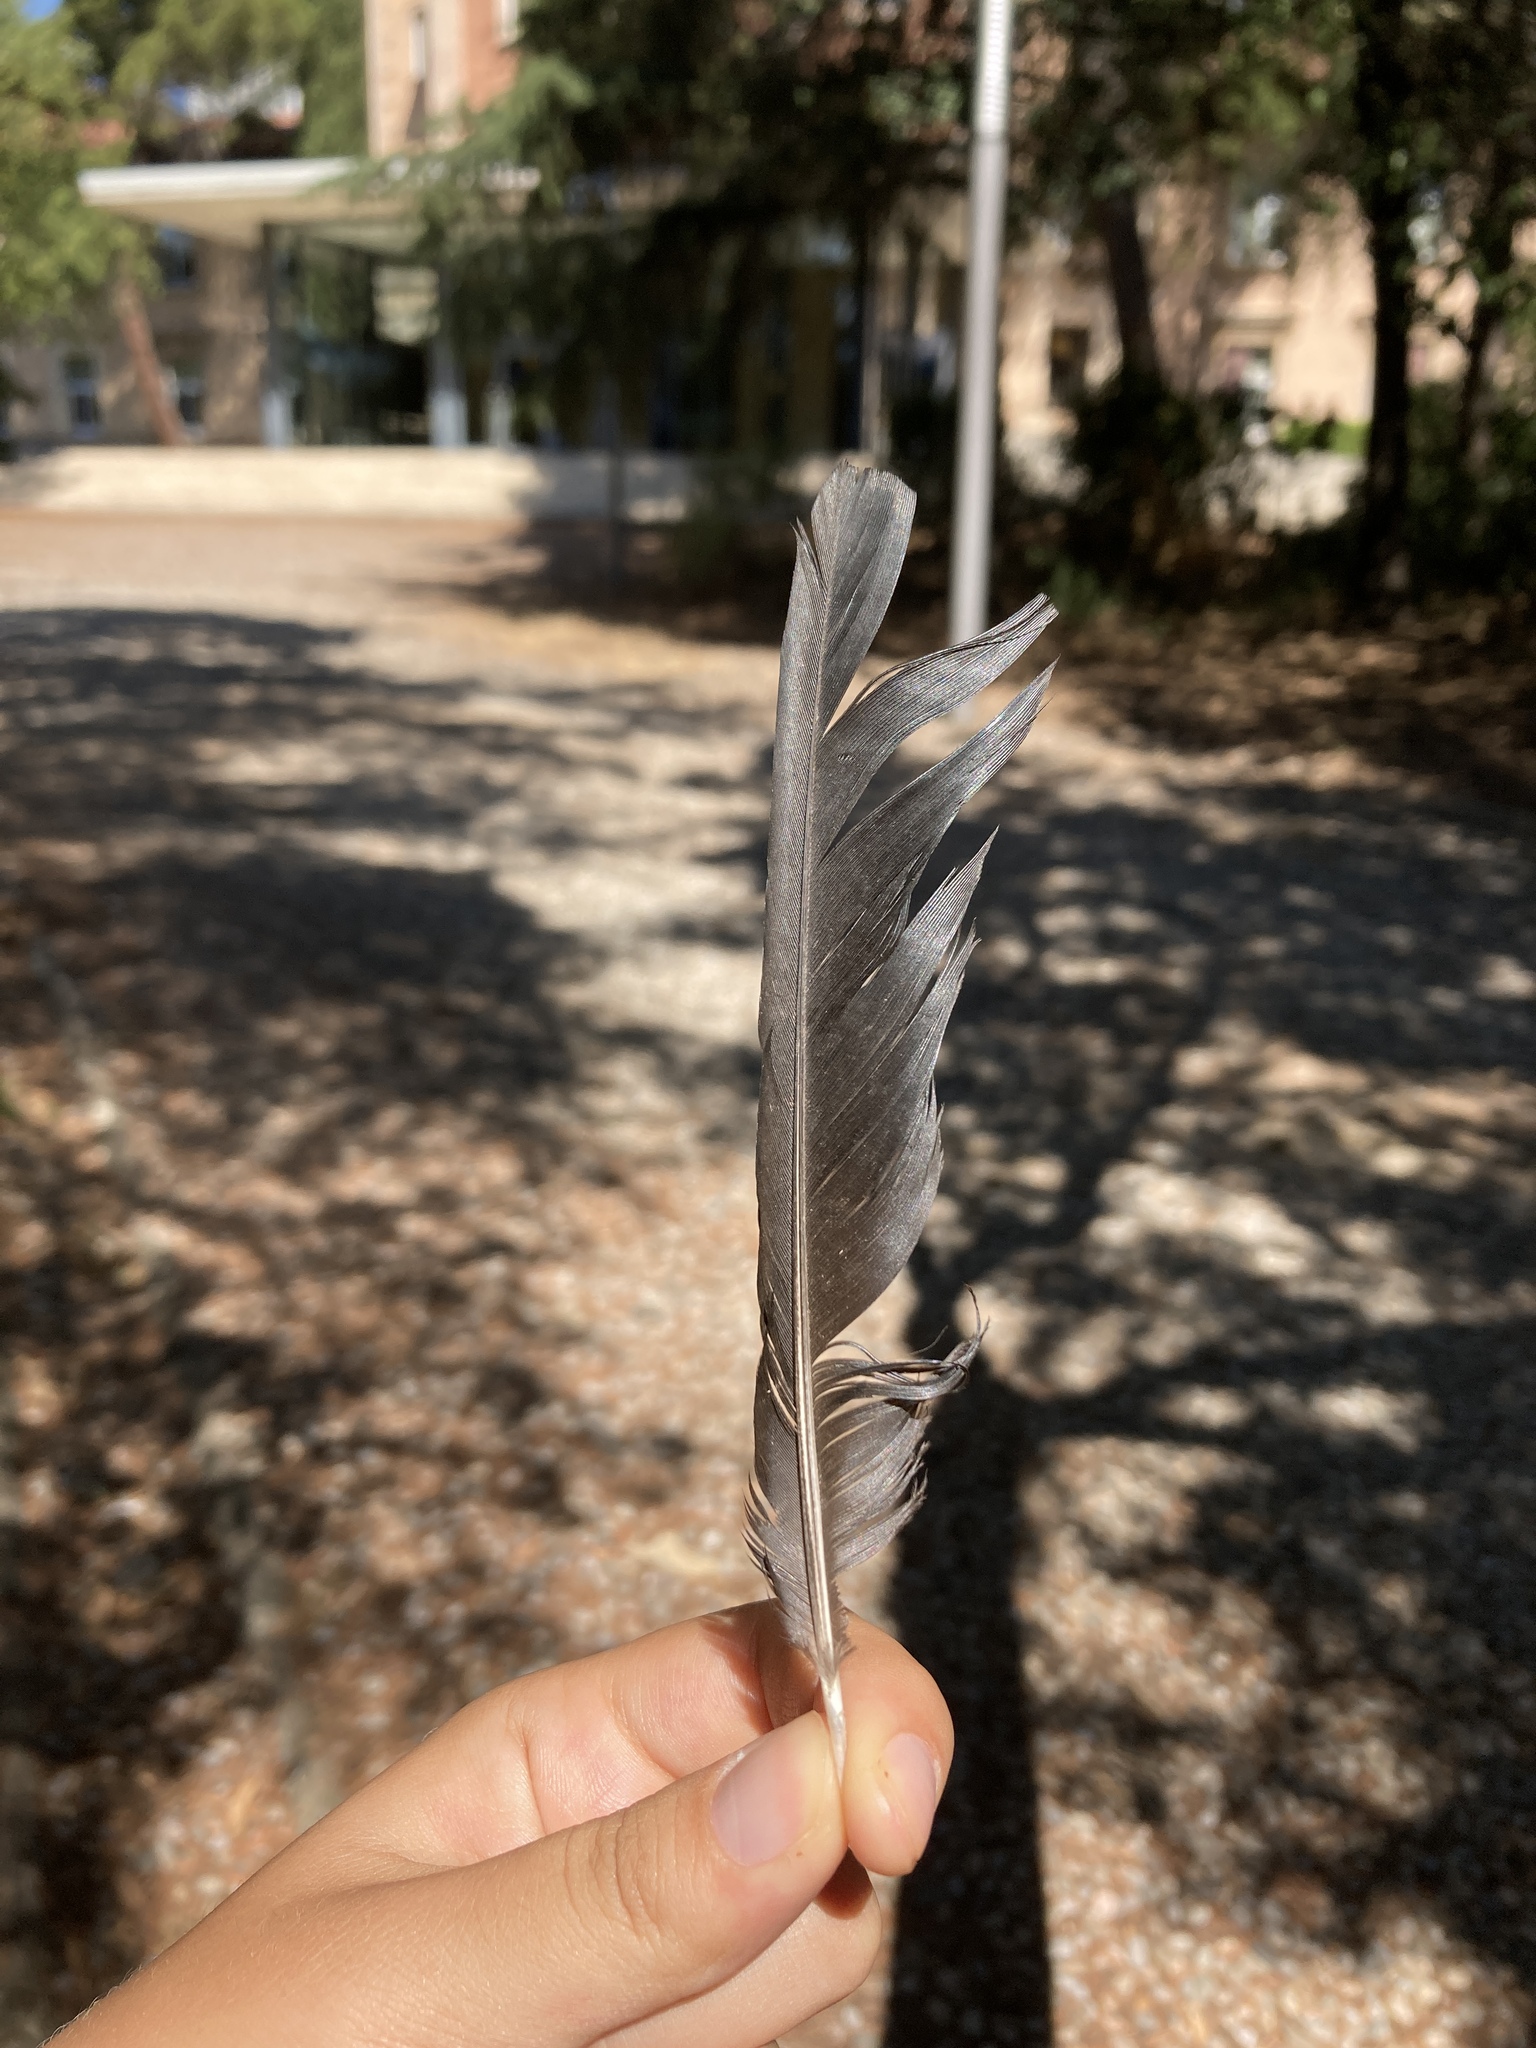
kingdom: Animalia
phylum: Chordata
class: Aves
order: Passeriformes
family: Corvidae
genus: Pica
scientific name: Pica pica
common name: Eurasian magpie
